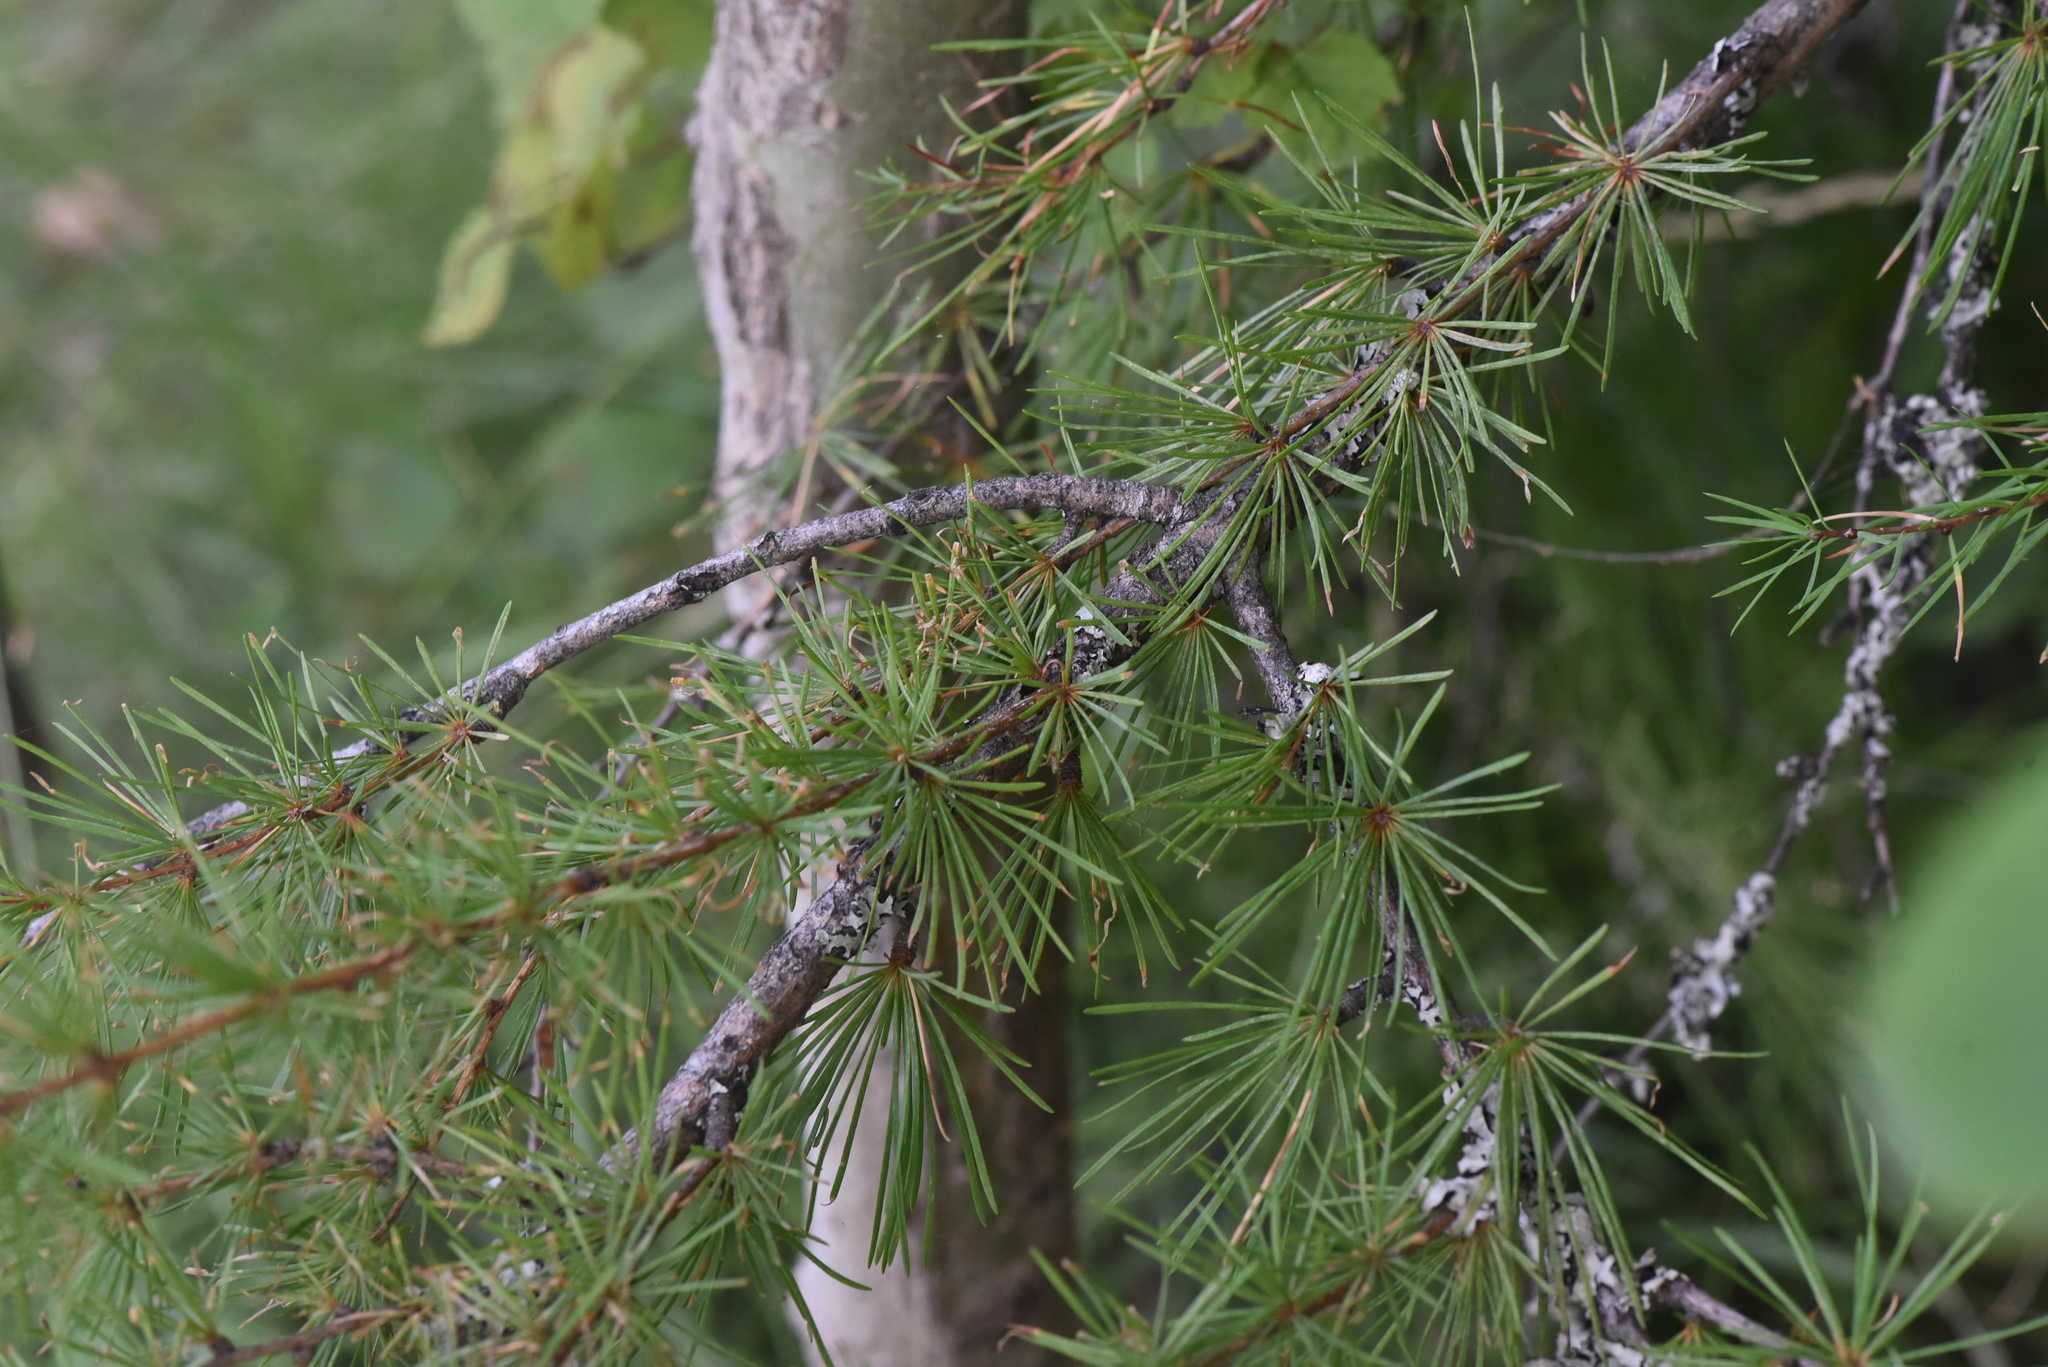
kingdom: Plantae
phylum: Tracheophyta
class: Pinopsida
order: Pinales
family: Pinaceae
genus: Larix
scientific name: Larix occidentalis
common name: Western larch
